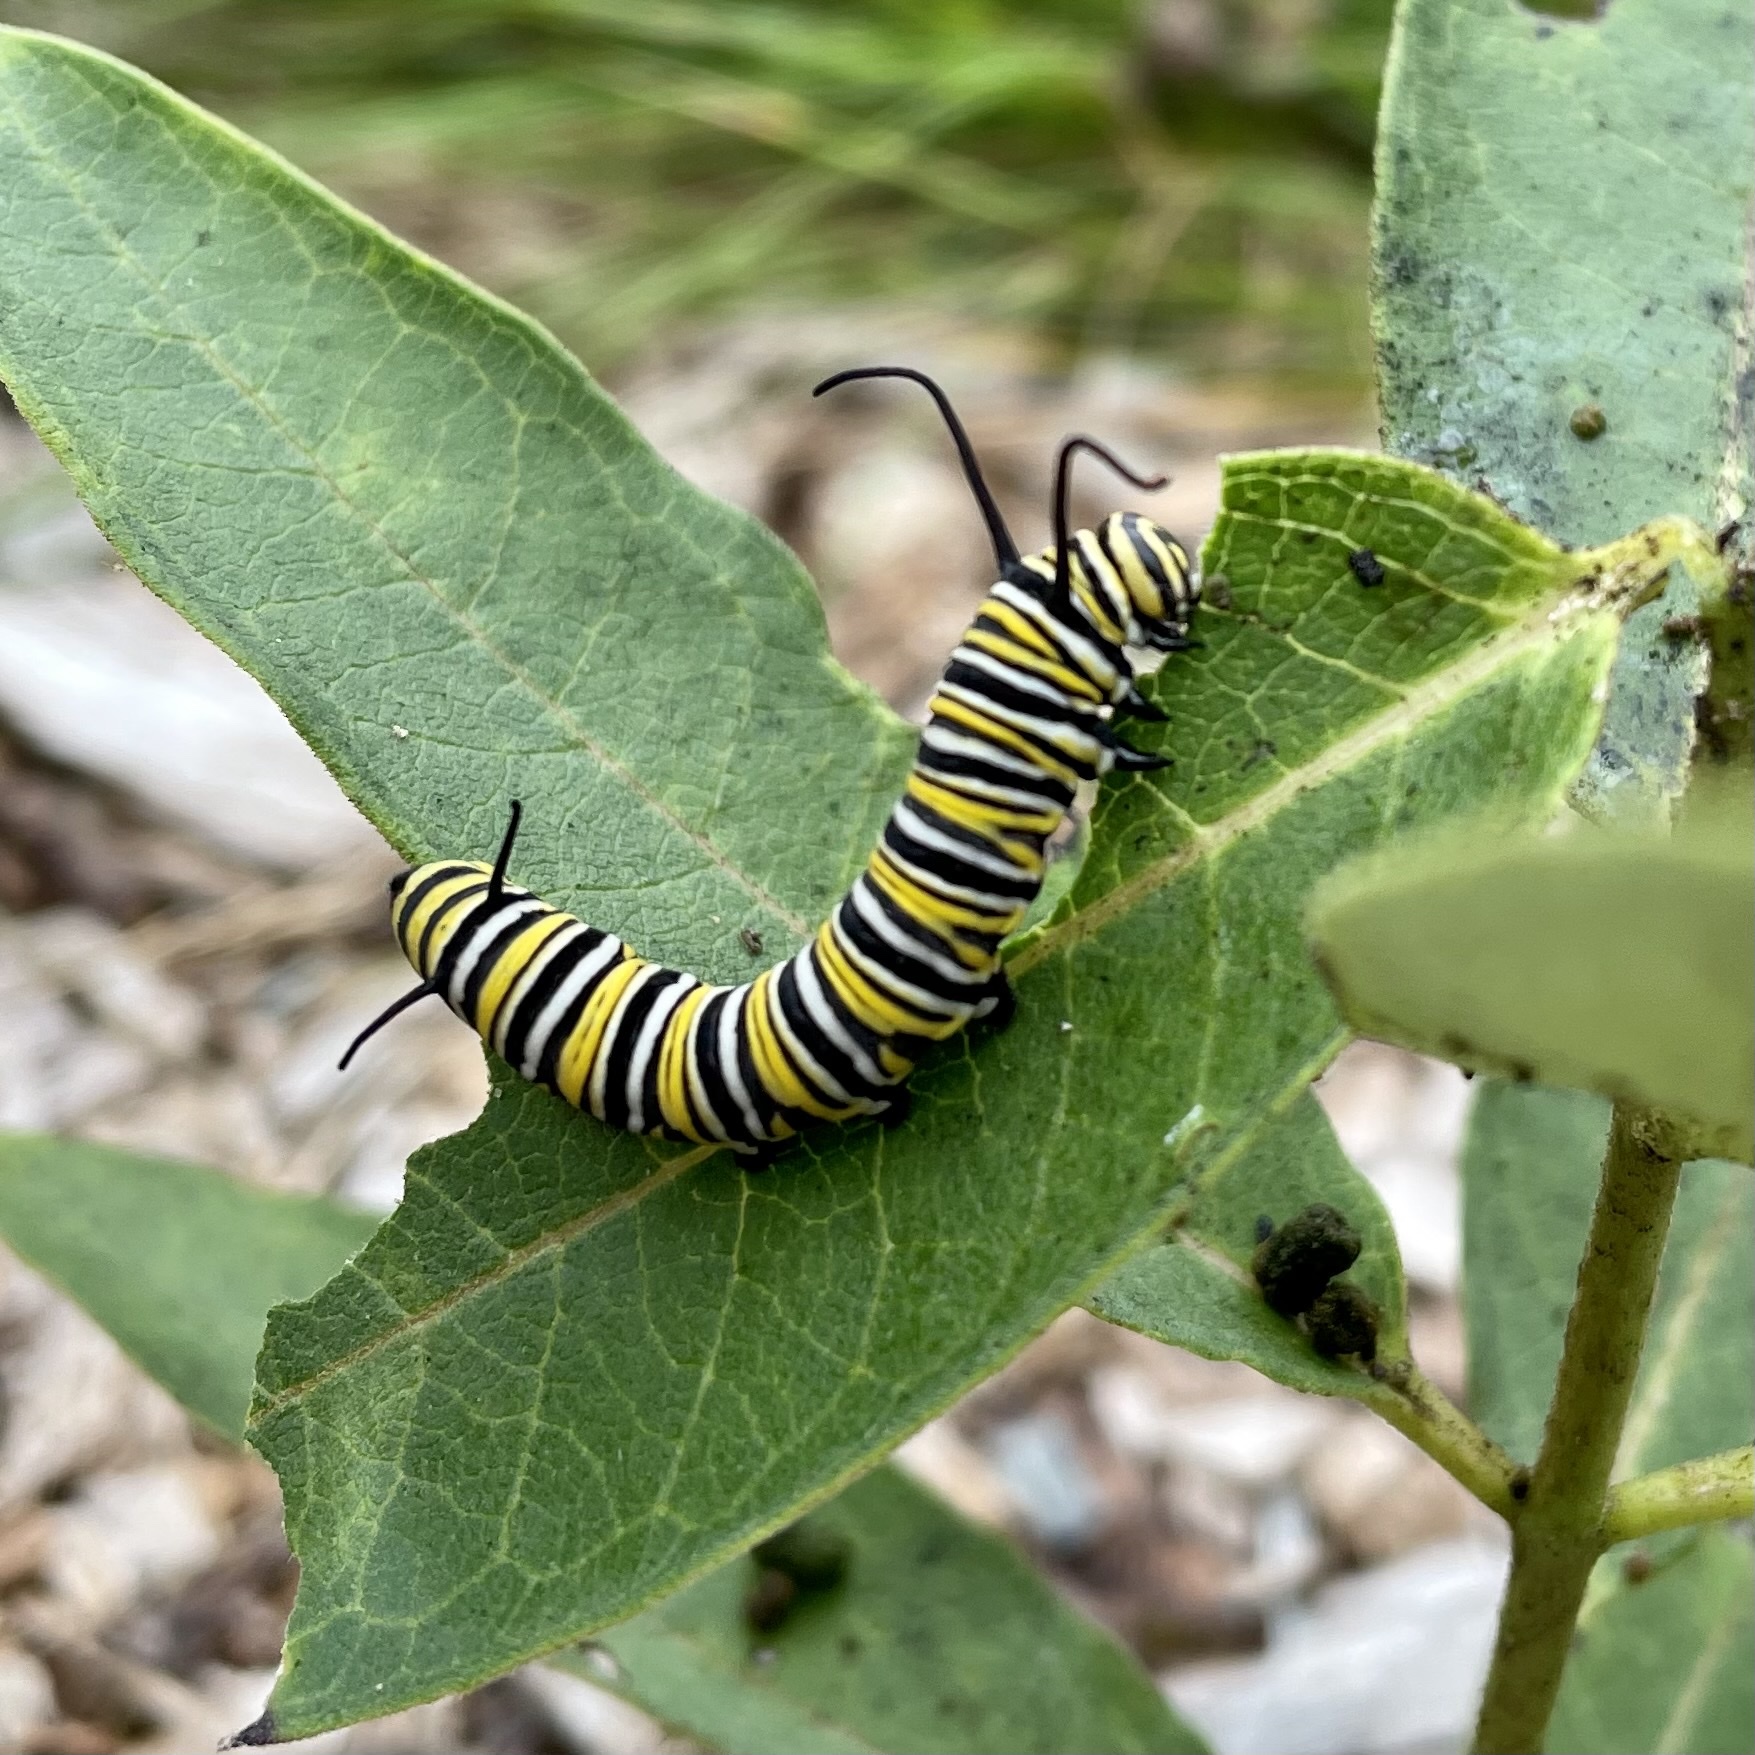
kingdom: Animalia
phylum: Arthropoda
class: Insecta
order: Lepidoptera
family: Nymphalidae
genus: Danaus
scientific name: Danaus plexippus
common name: Monarch
